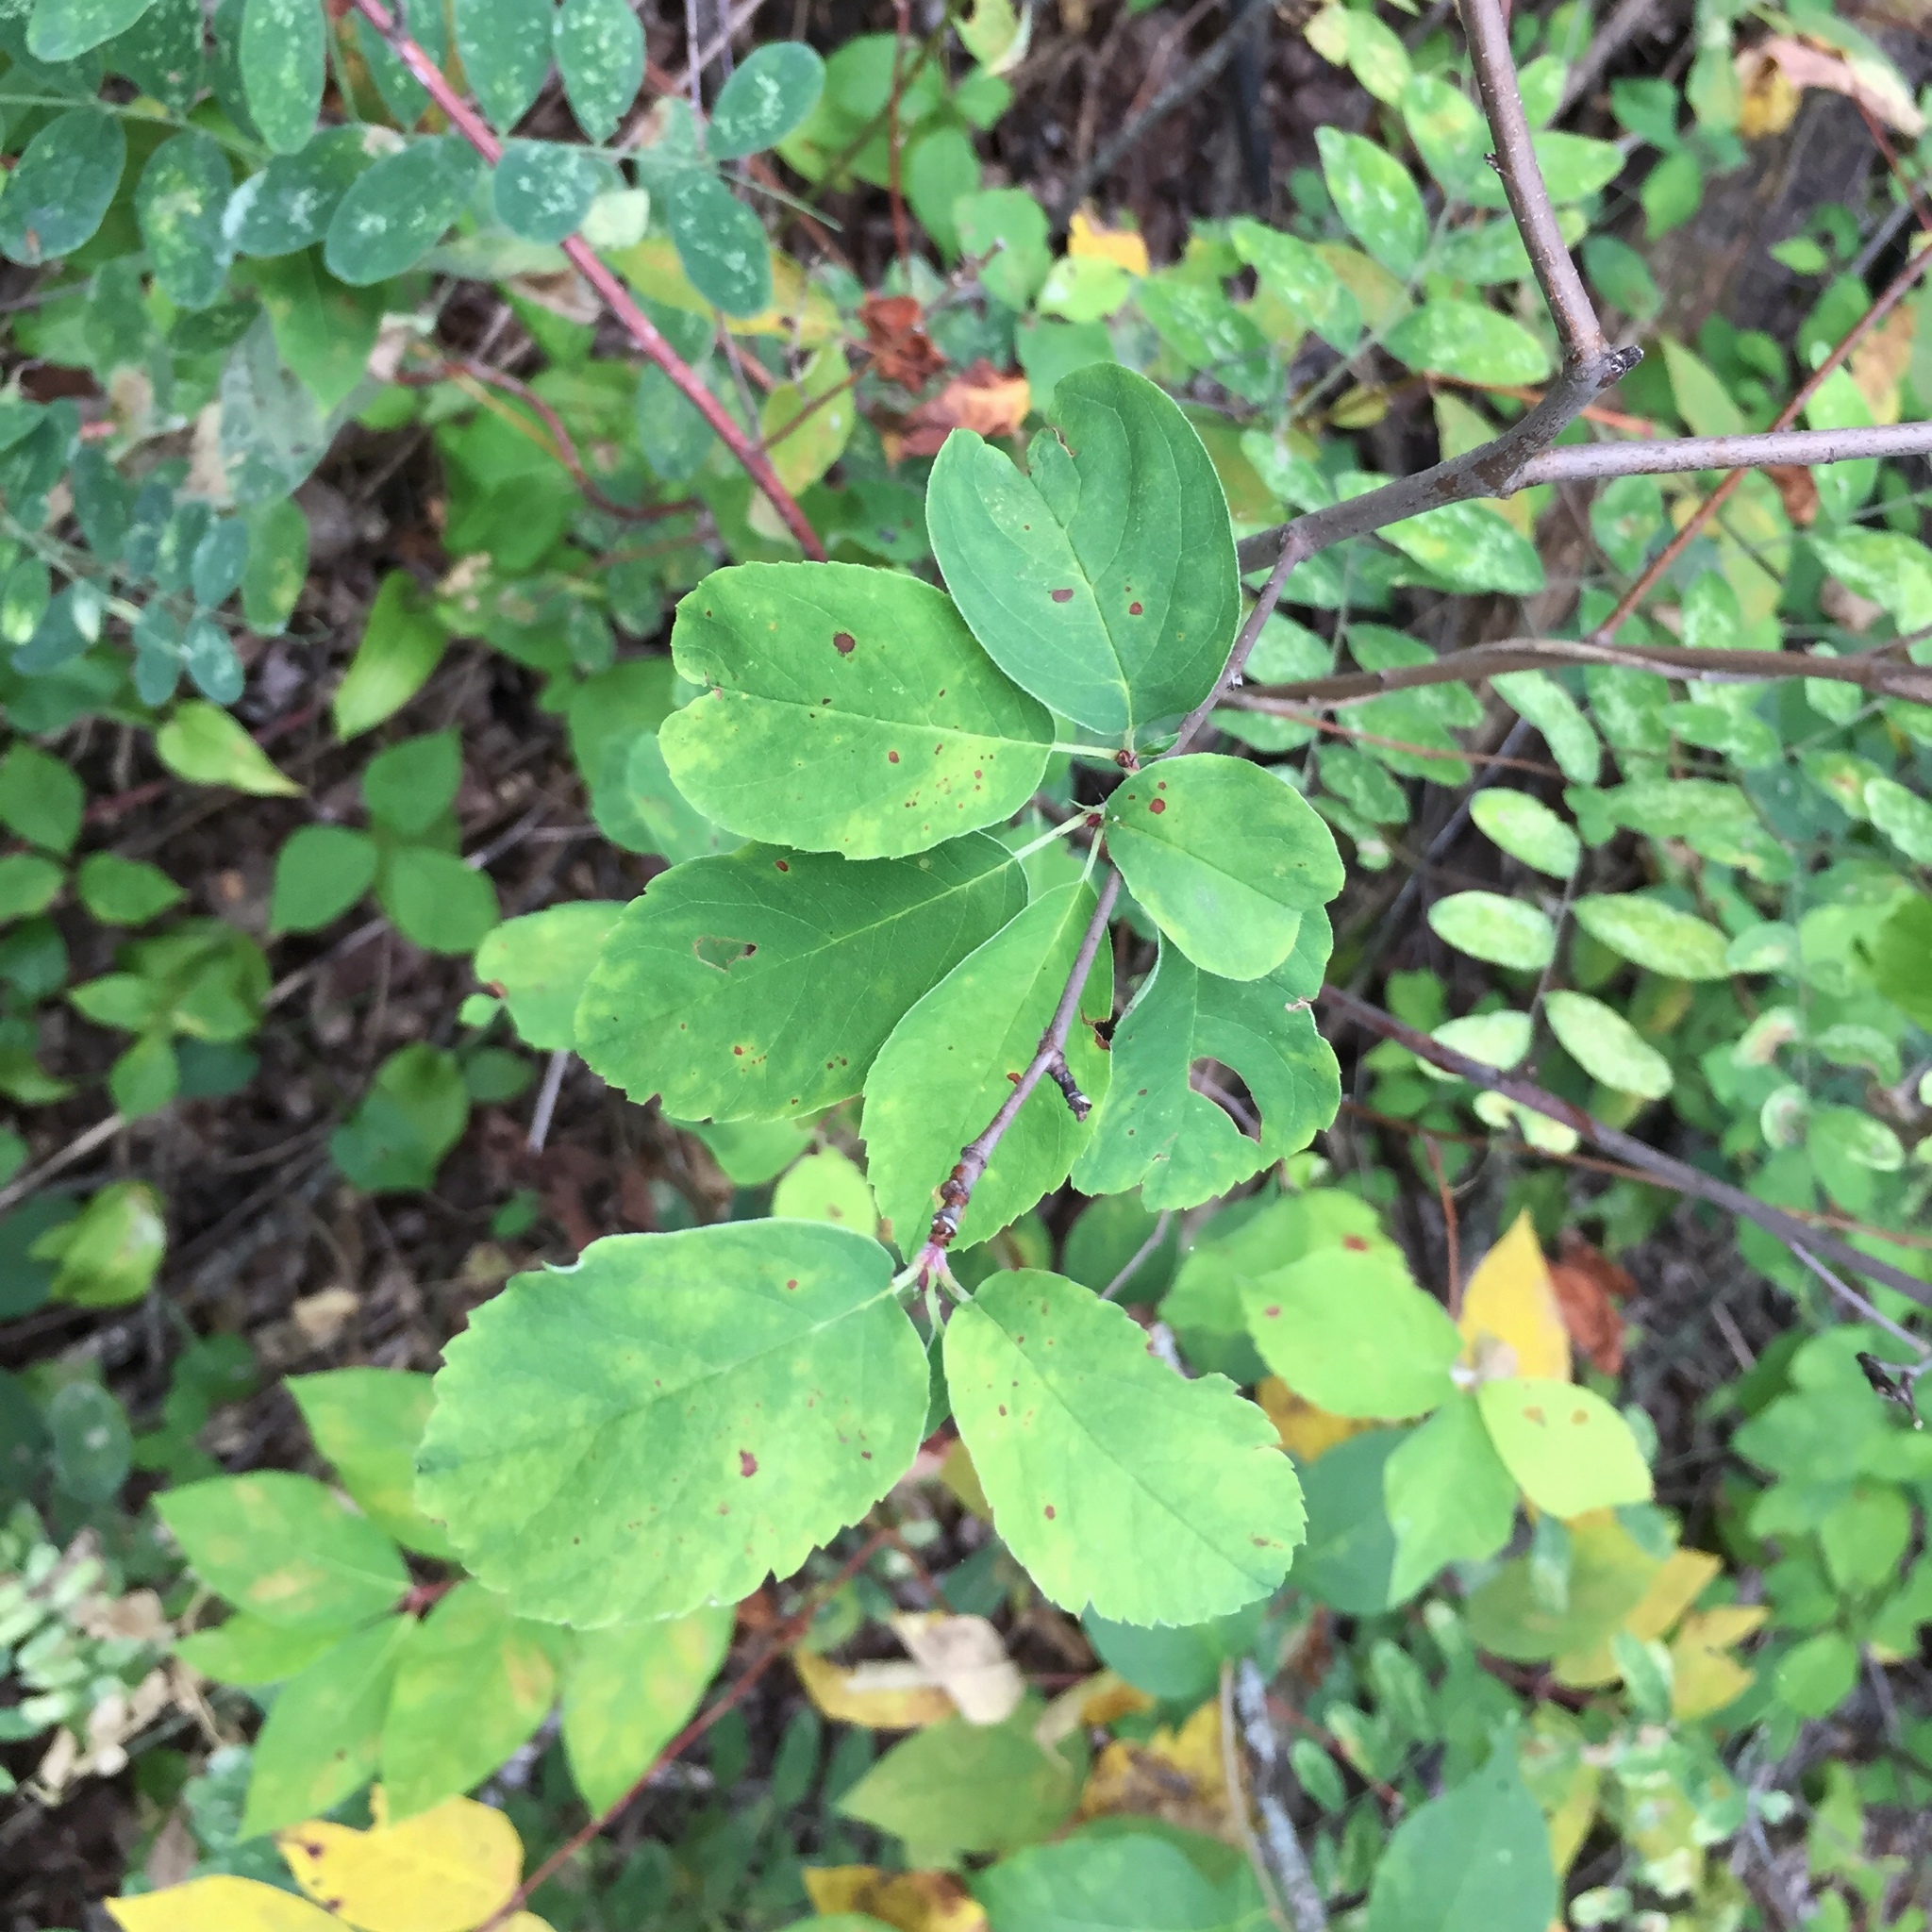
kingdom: Plantae
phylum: Tracheophyta
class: Magnoliopsida
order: Rosales
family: Rosaceae
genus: Amelanchier
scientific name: Amelanchier alnifolia
